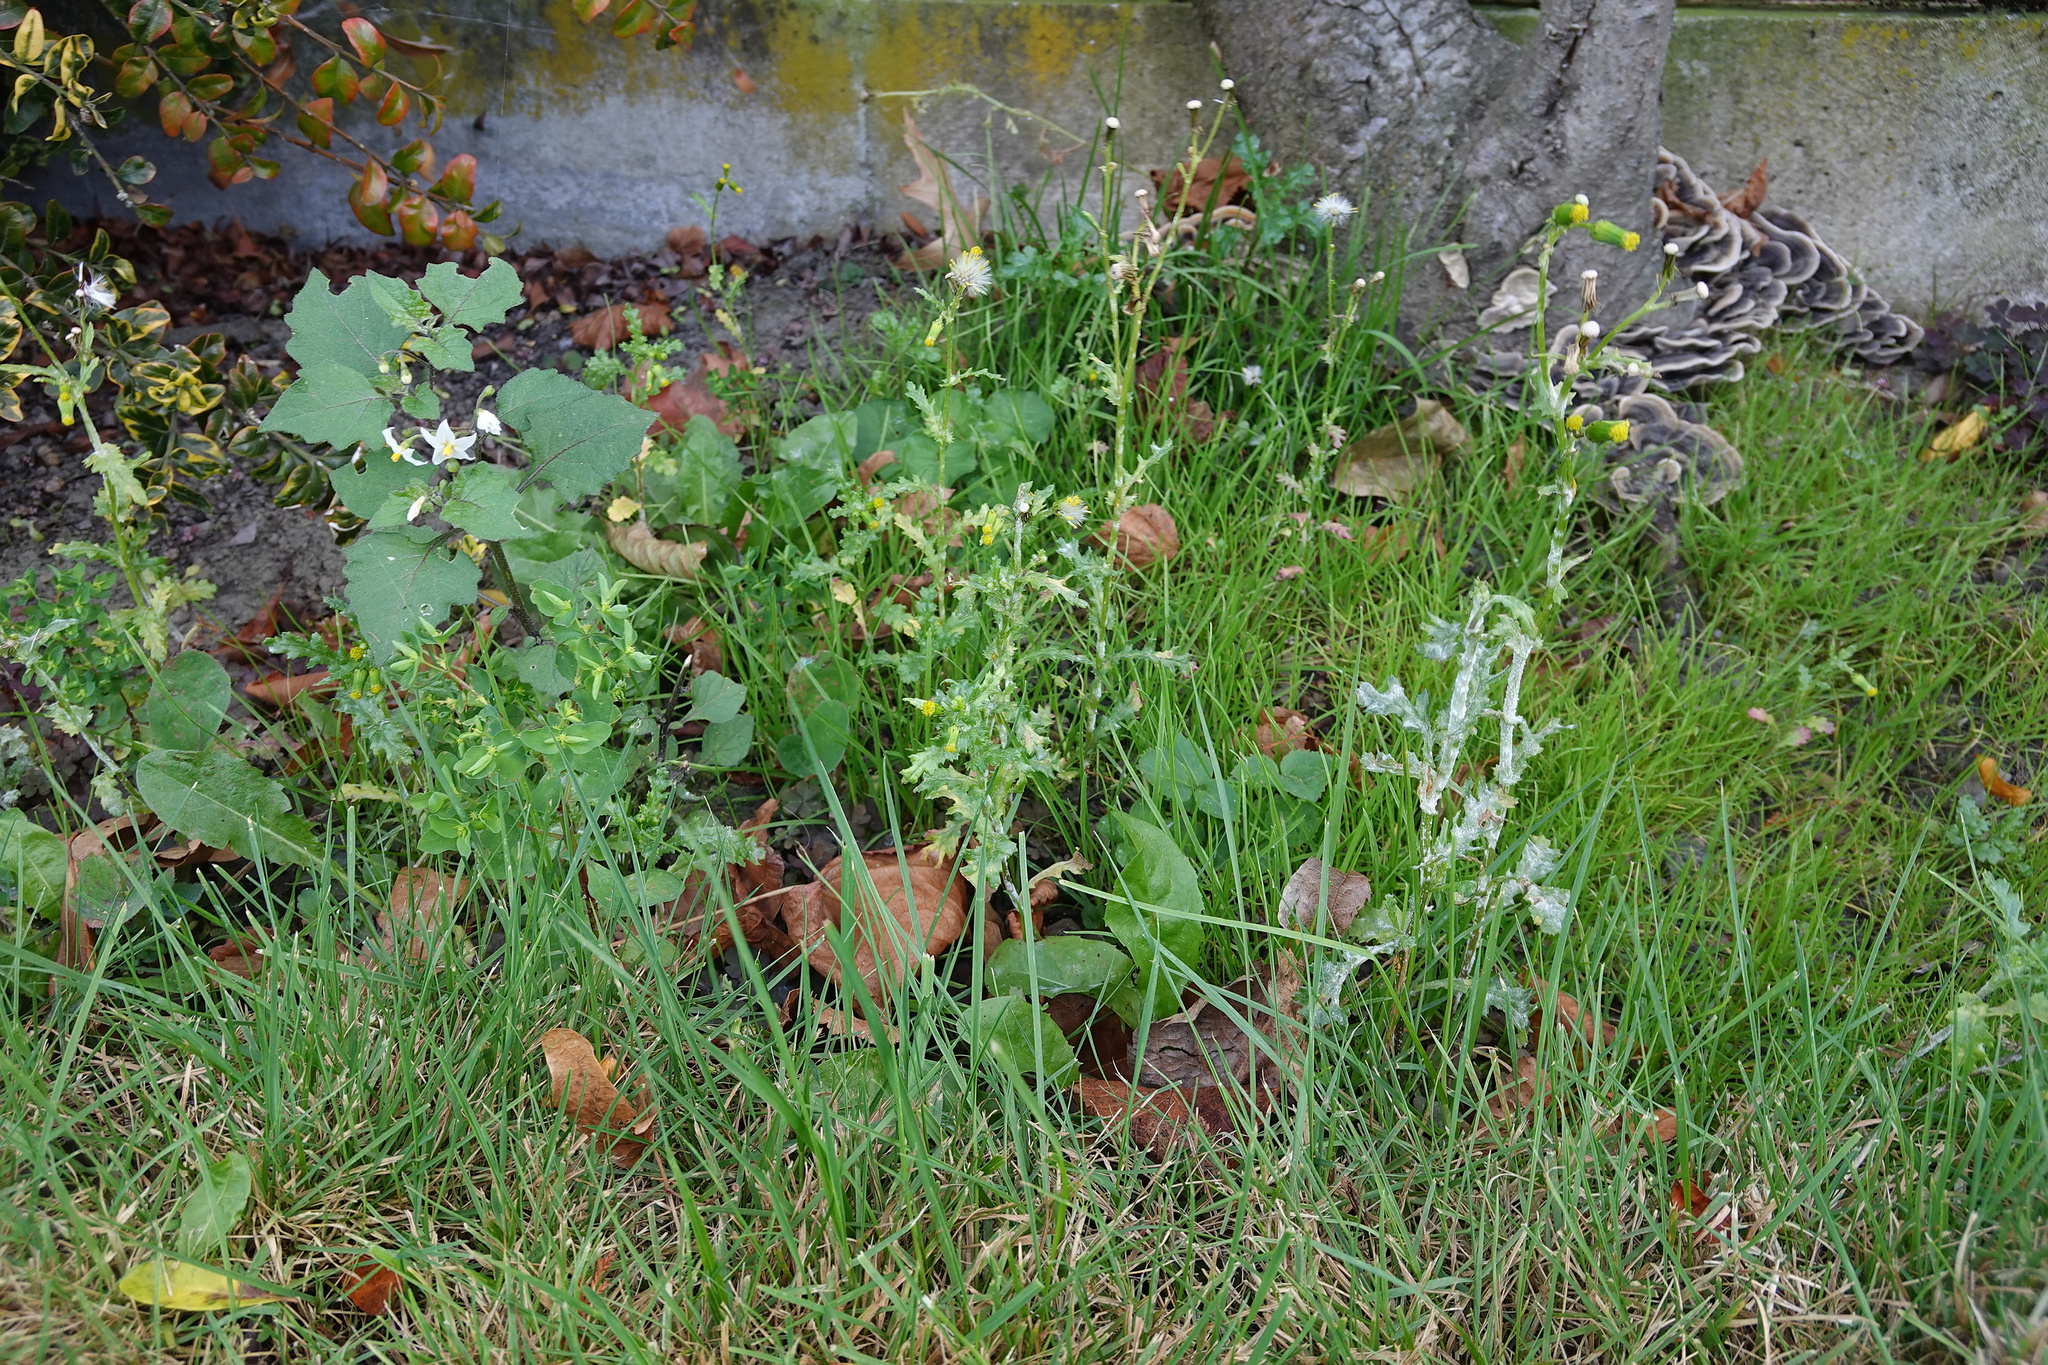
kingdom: Plantae
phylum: Tracheophyta
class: Magnoliopsida
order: Asterales
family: Asteraceae
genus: Senecio
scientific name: Senecio vulgaris
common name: Old-man-in-the-spring
